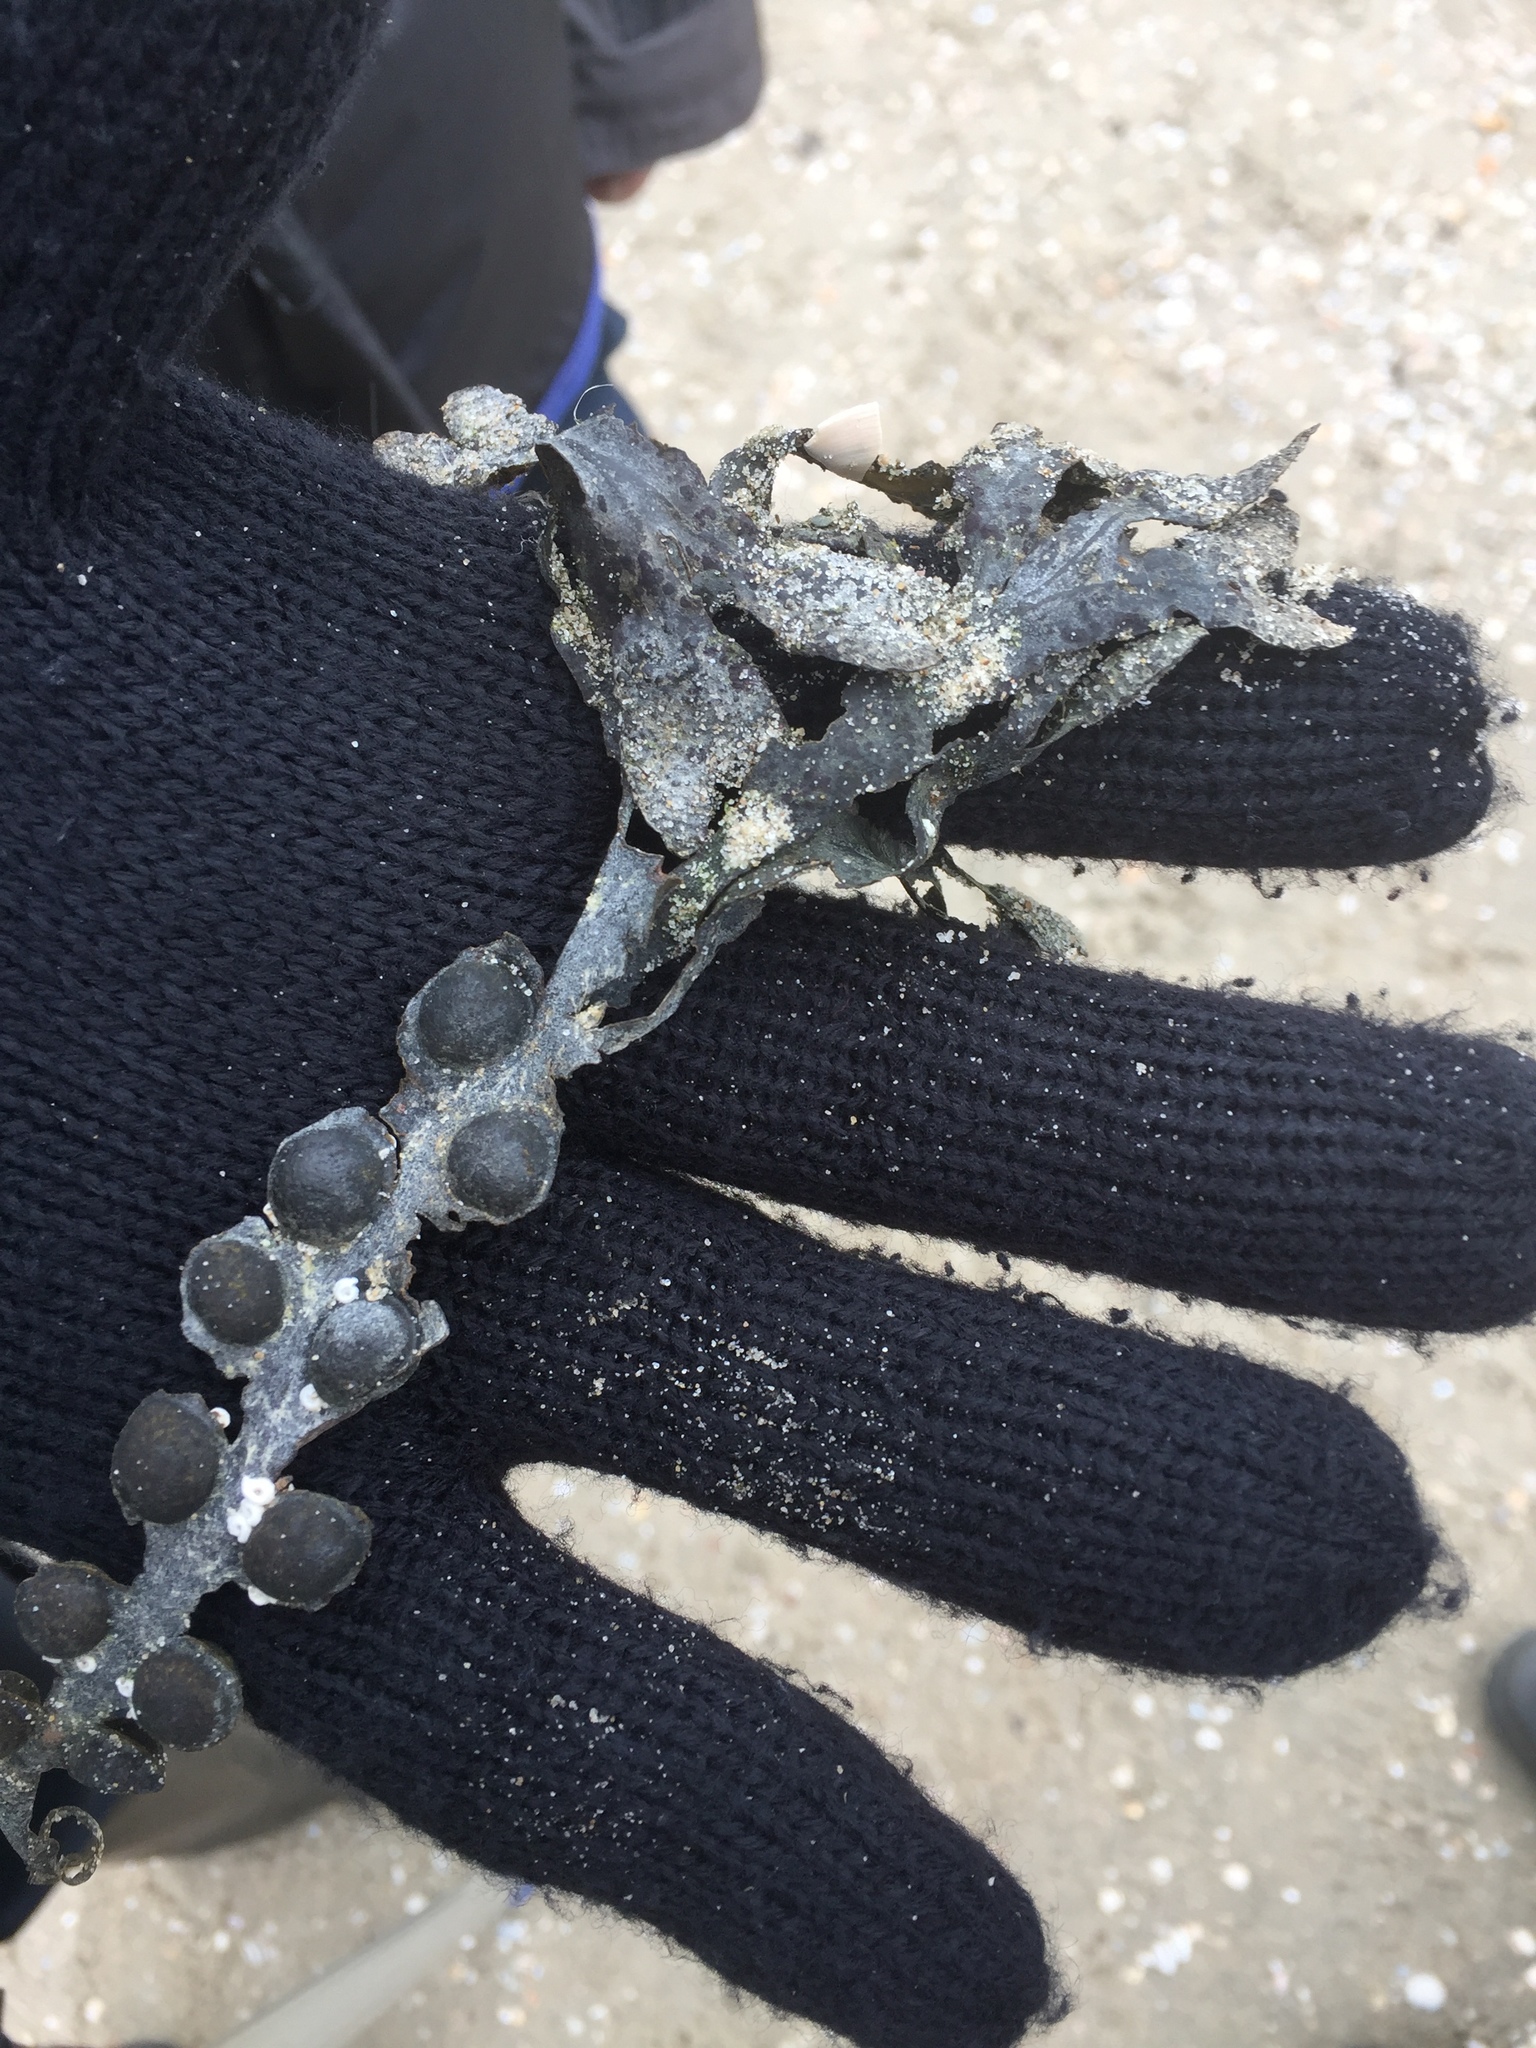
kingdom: Chromista
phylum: Ochrophyta
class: Phaeophyceae
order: Fucales
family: Fucaceae
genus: Fucus
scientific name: Fucus vesiculosus
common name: Bladder wrack
